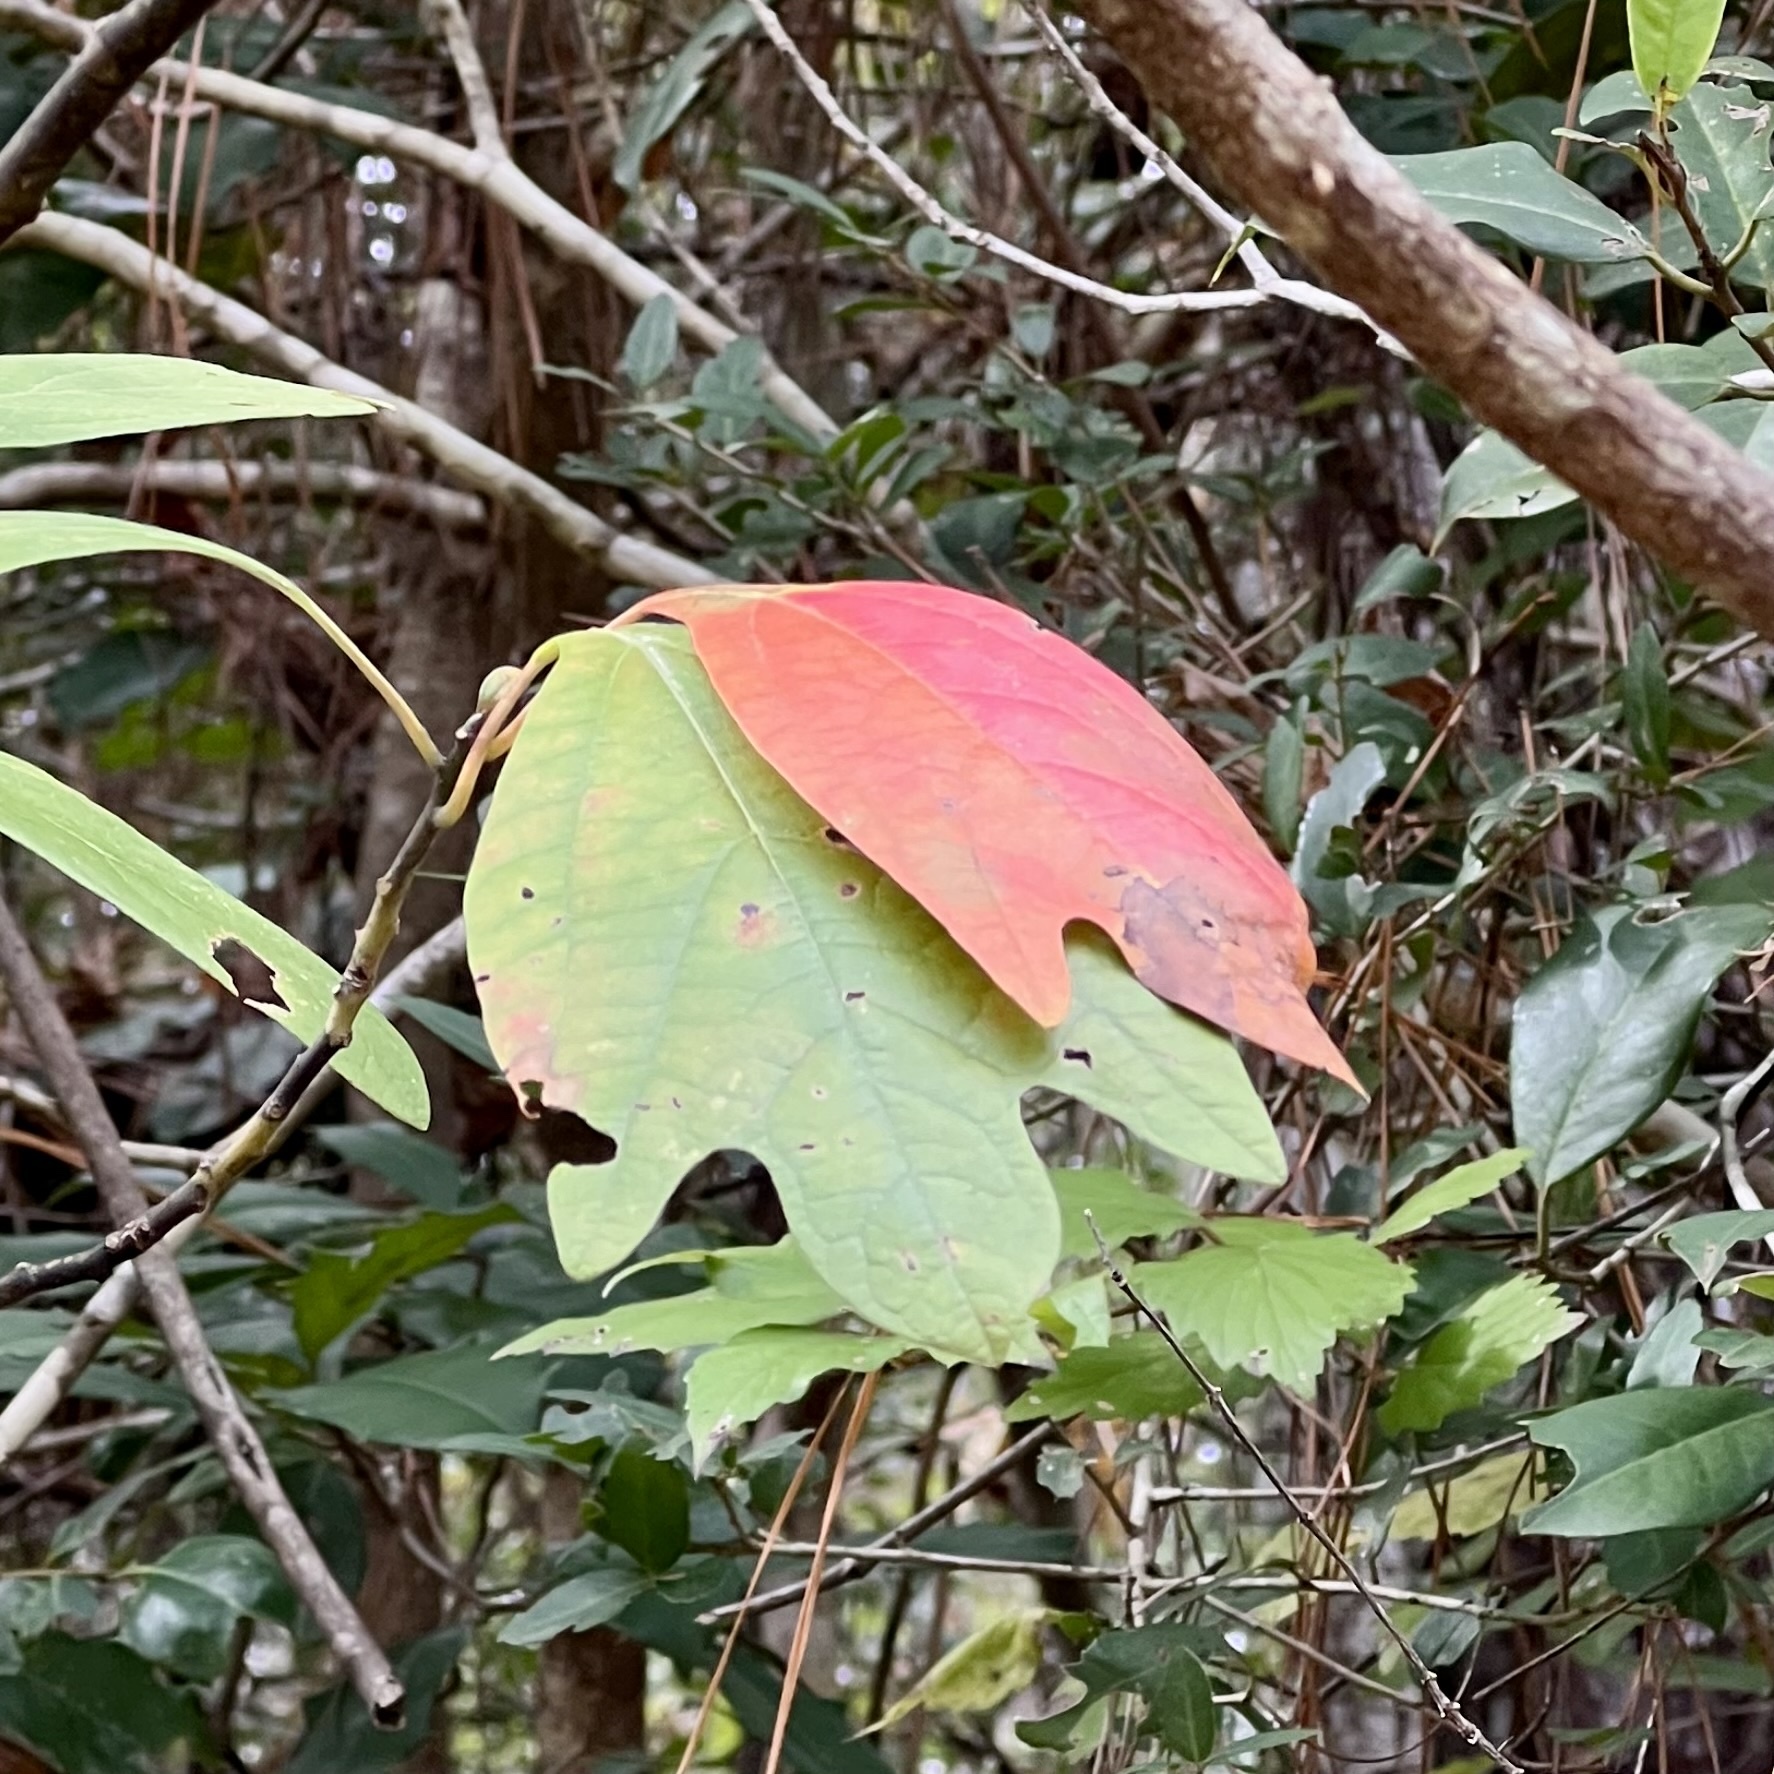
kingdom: Plantae
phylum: Tracheophyta
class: Magnoliopsida
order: Laurales
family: Lauraceae
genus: Sassafras
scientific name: Sassafras albidum
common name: Sassafras
